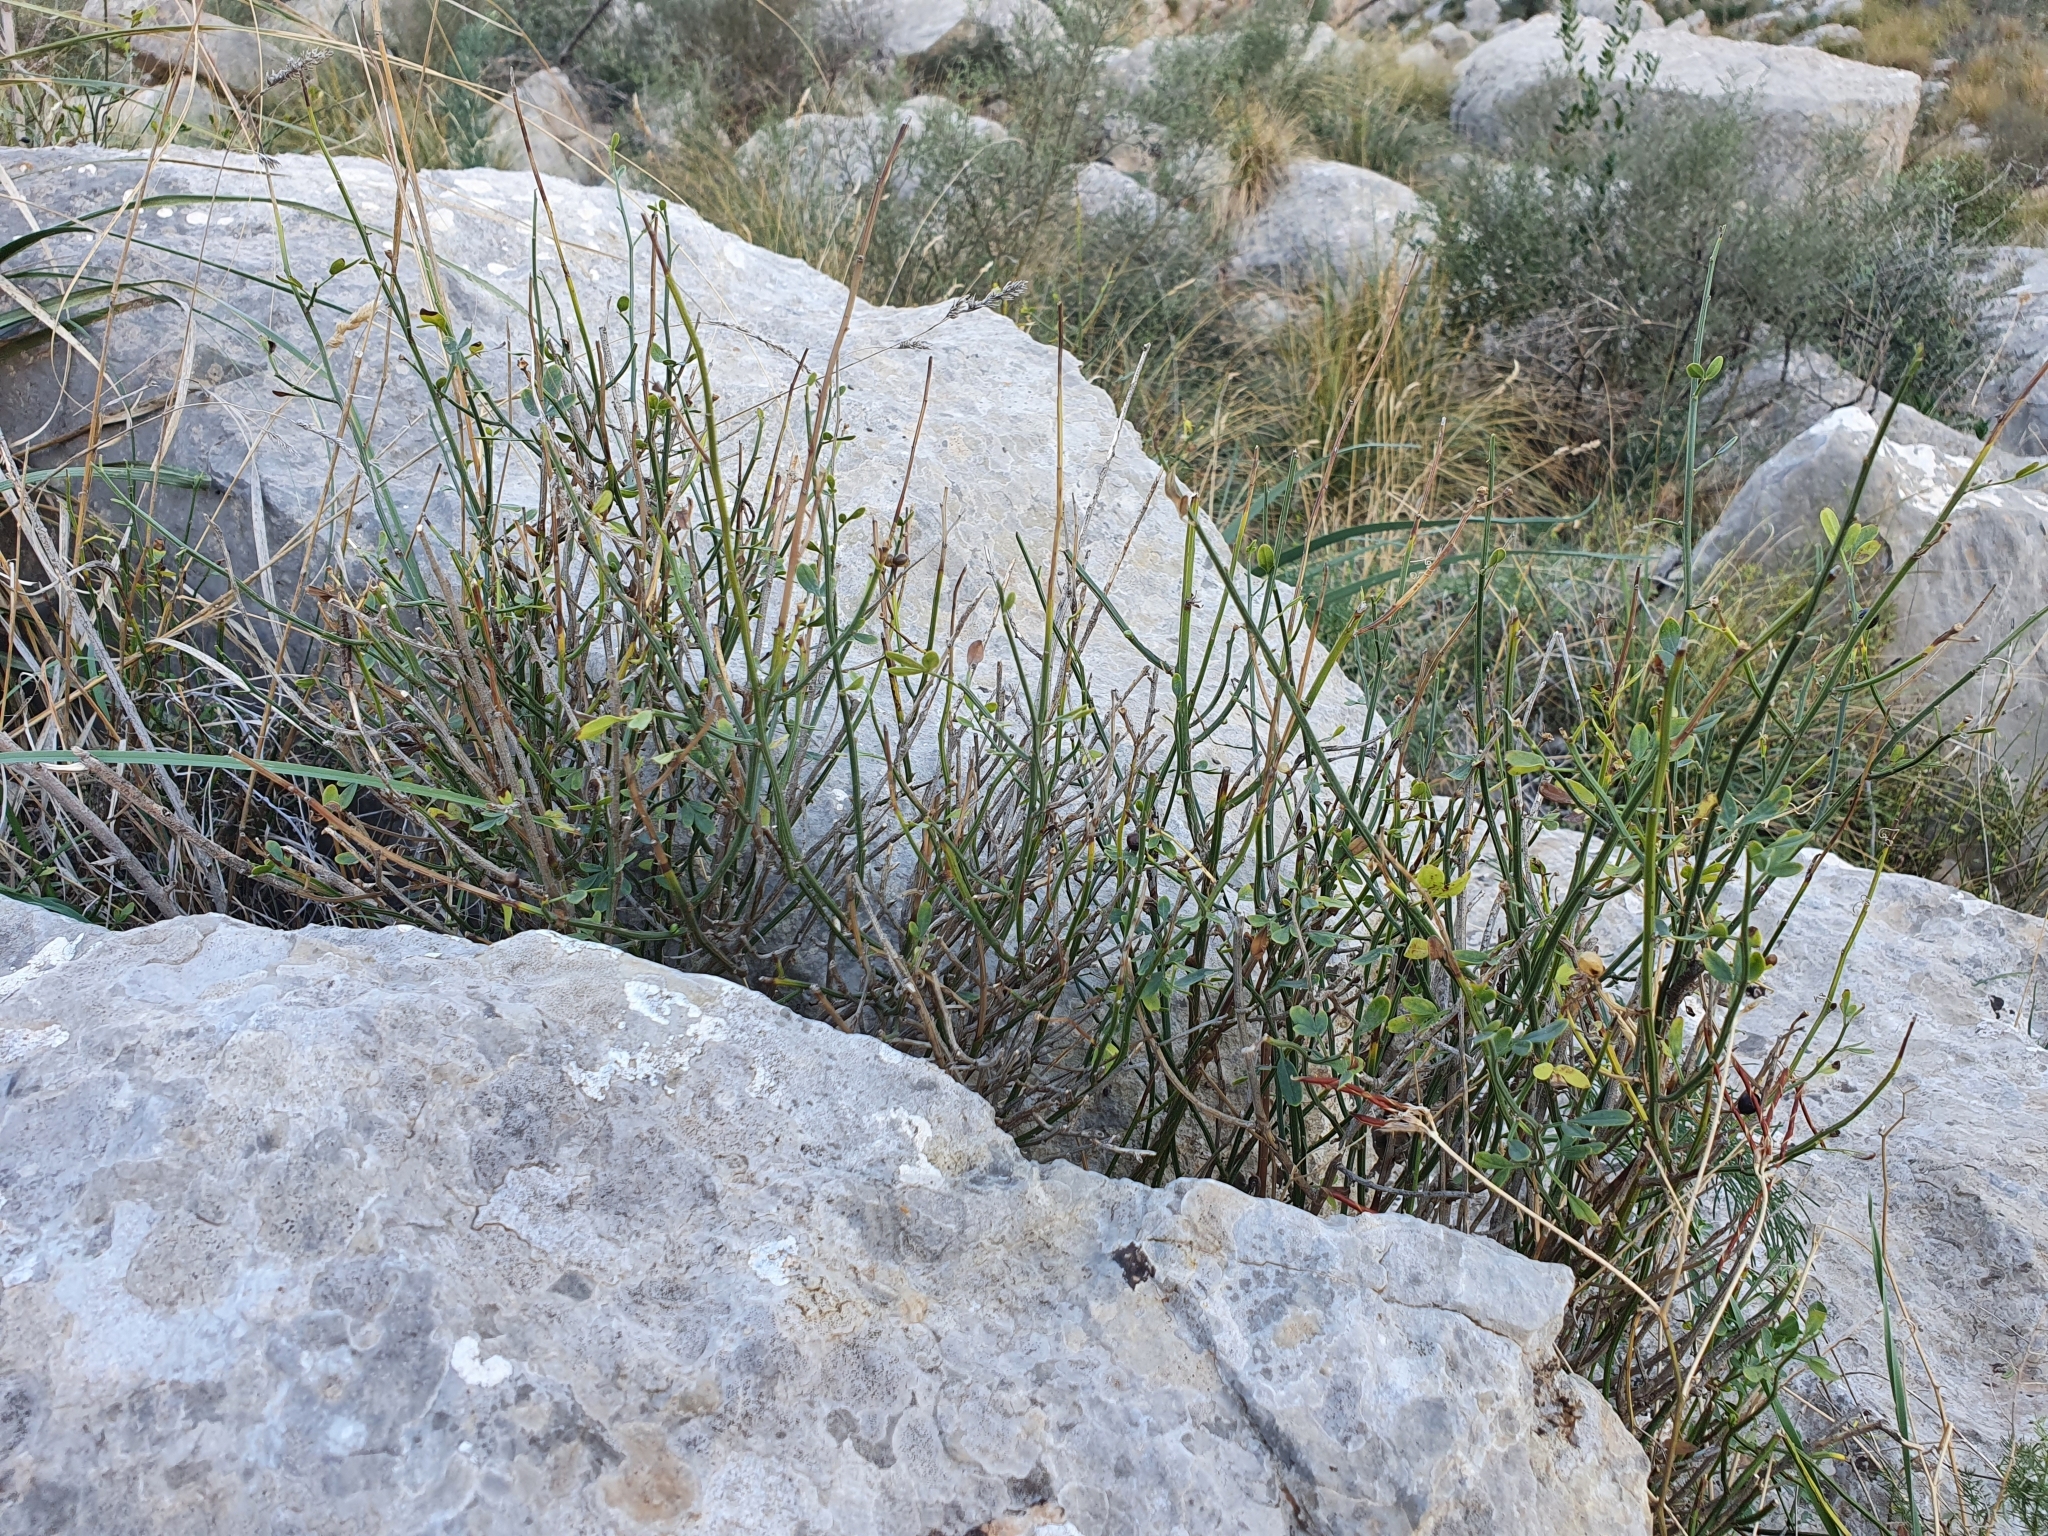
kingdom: Plantae
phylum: Tracheophyta
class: Magnoliopsida
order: Lamiales
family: Oleaceae
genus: Chrysojasminum
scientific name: Chrysojasminum fruticans
